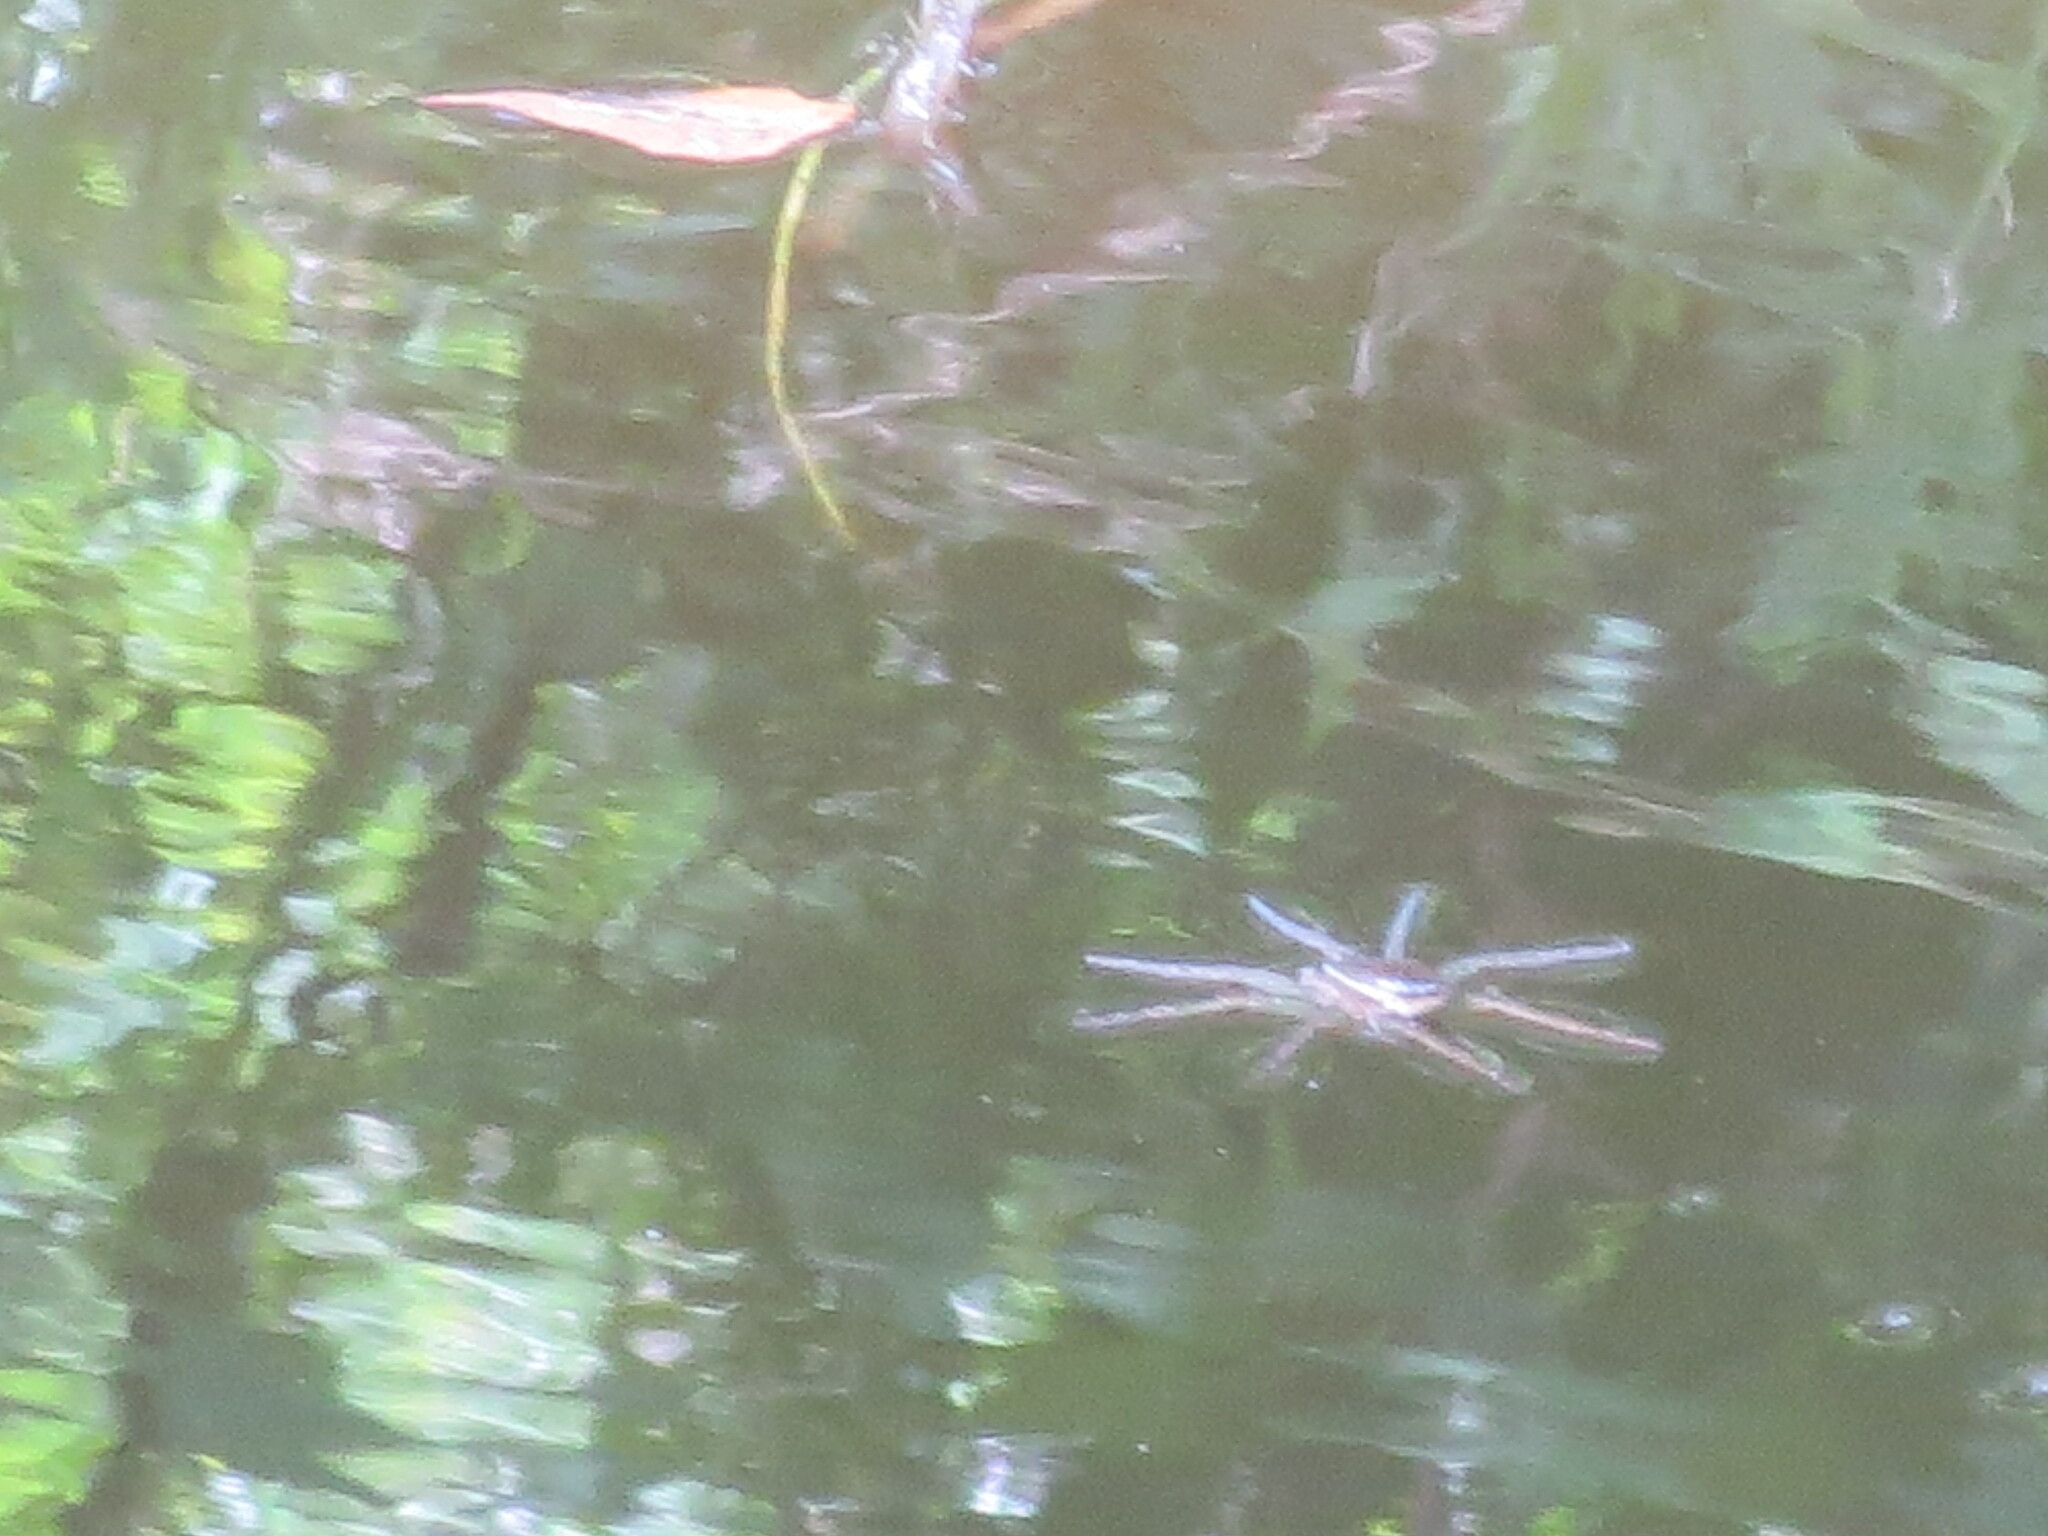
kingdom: Animalia
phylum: Arthropoda
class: Arachnida
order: Araneae
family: Pisauridae
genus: Dolomedes
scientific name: Dolomedes triton
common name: Six-spotted fishing spider
